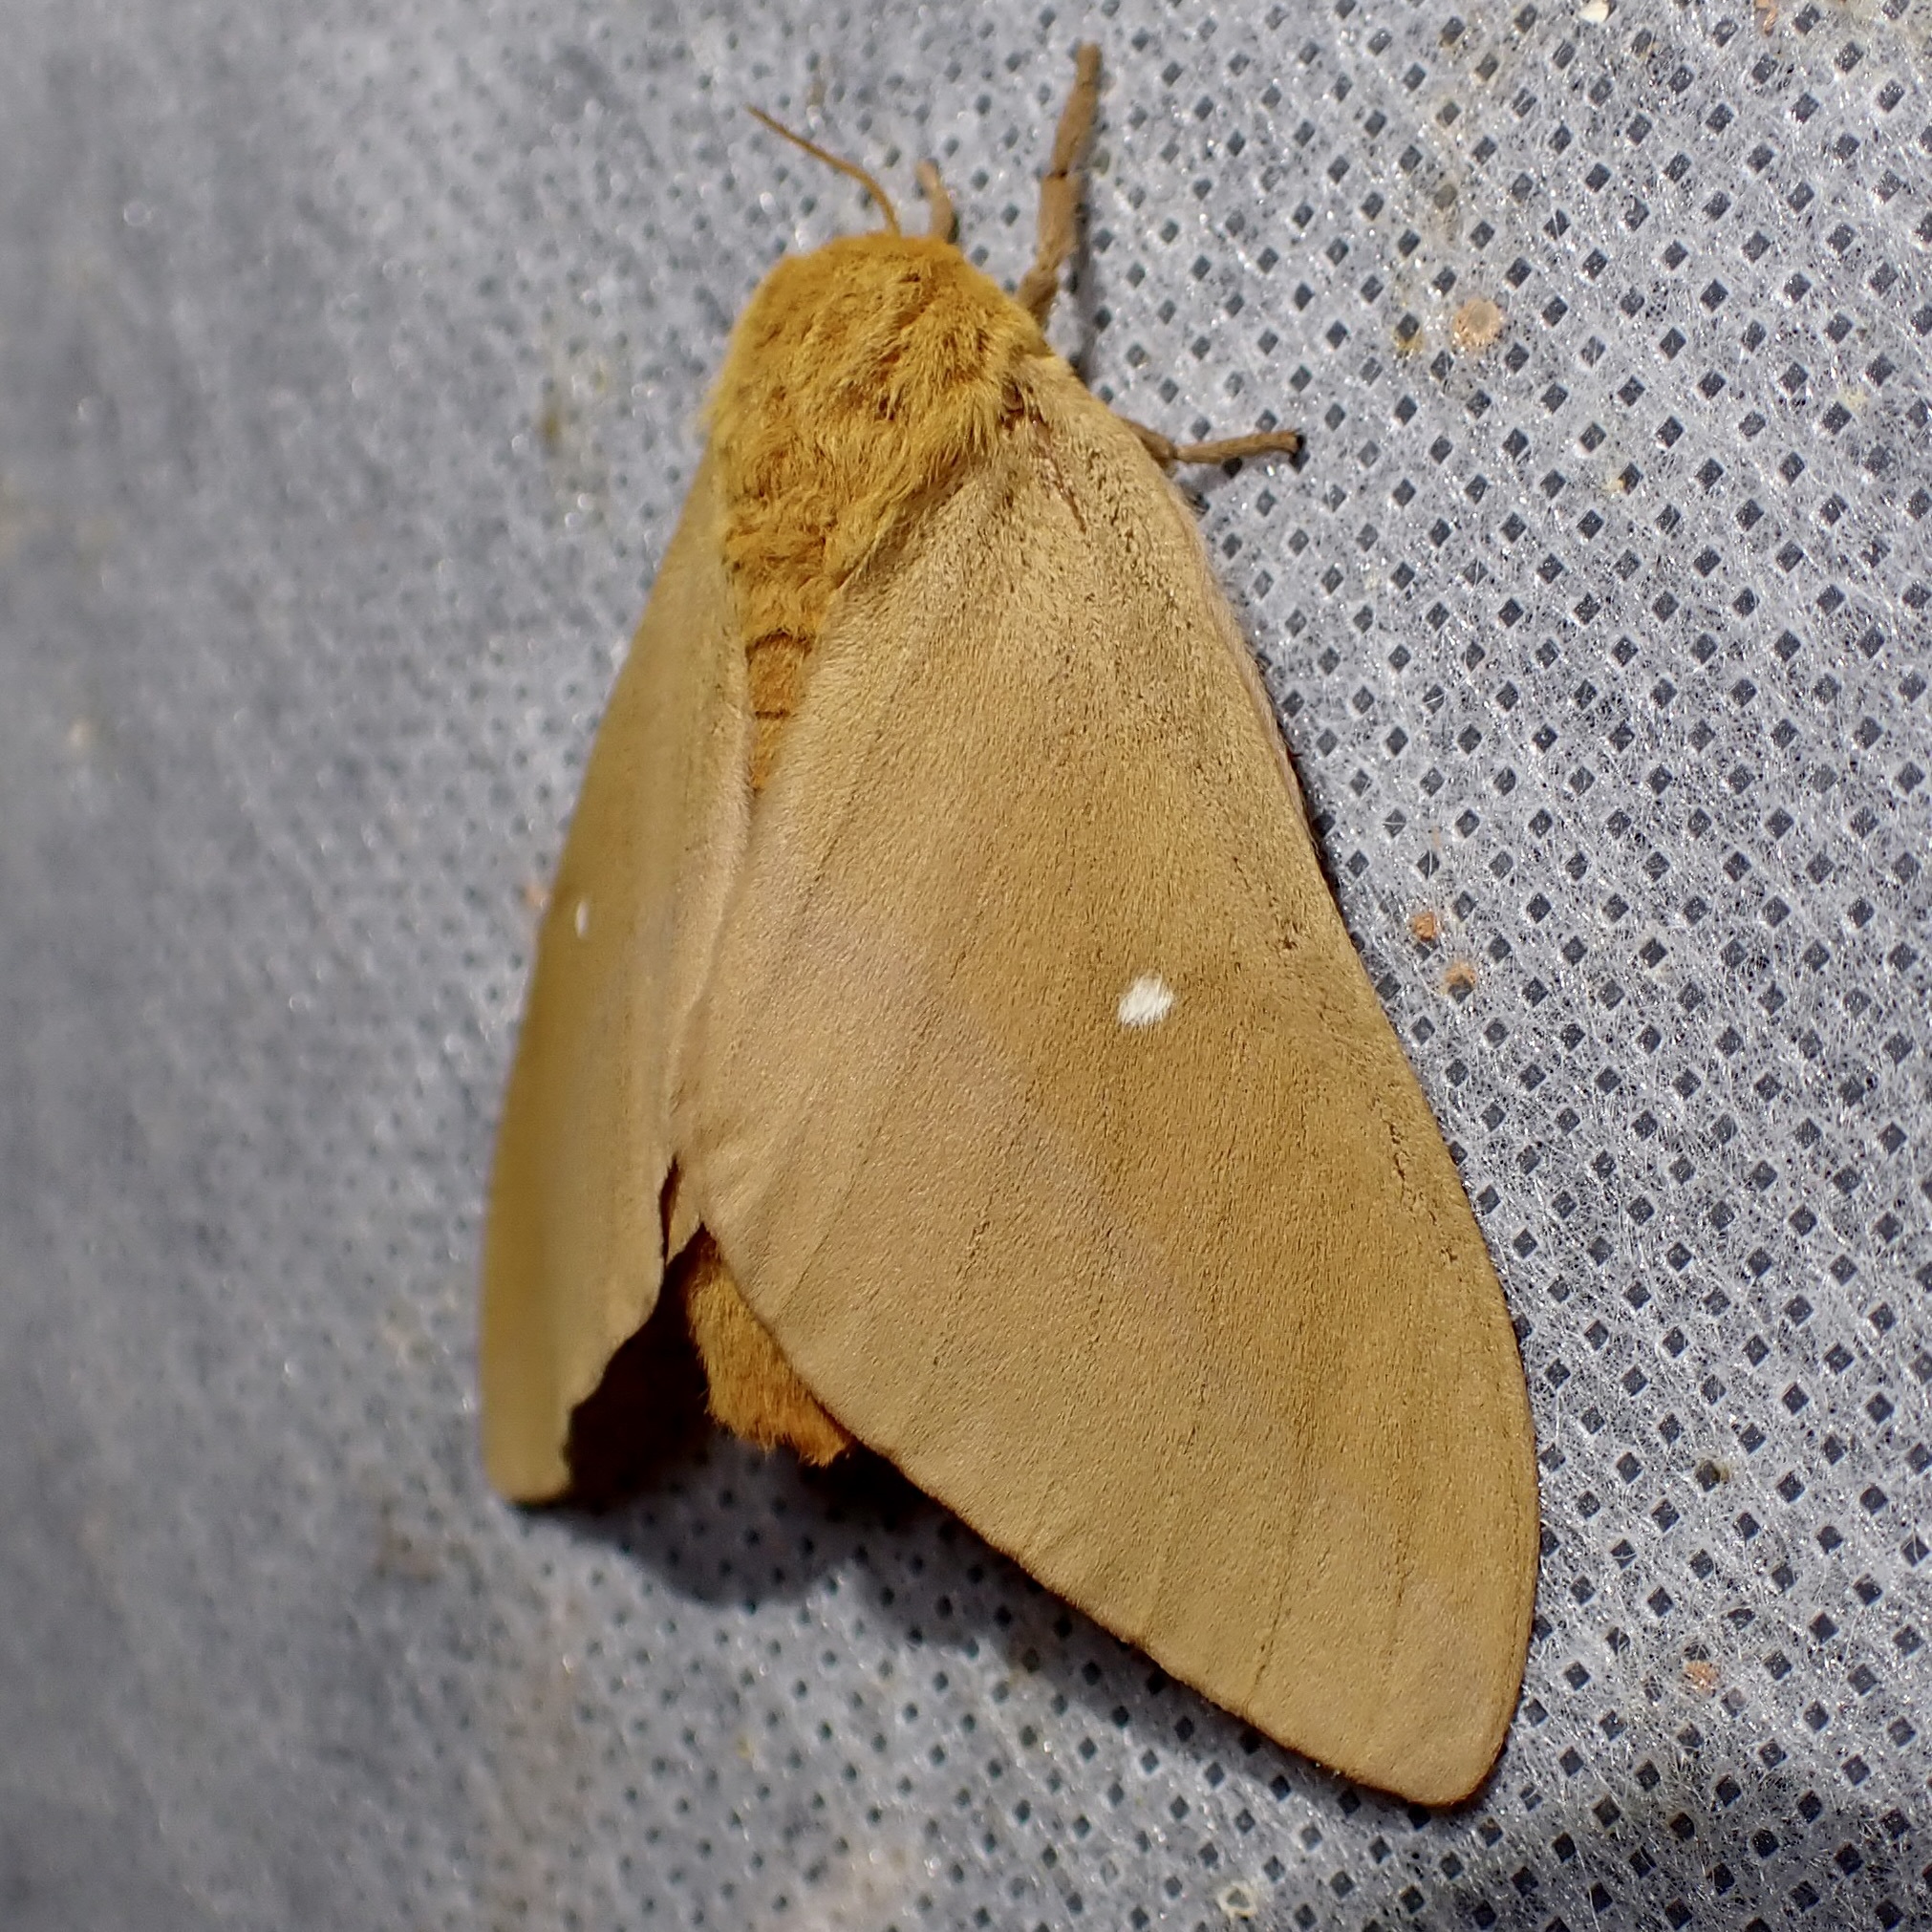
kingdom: Animalia
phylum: Arthropoda
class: Insecta
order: Lepidoptera
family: Saturniidae
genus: Anisota
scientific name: Anisota oslari
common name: Oslar's oakworm moth
